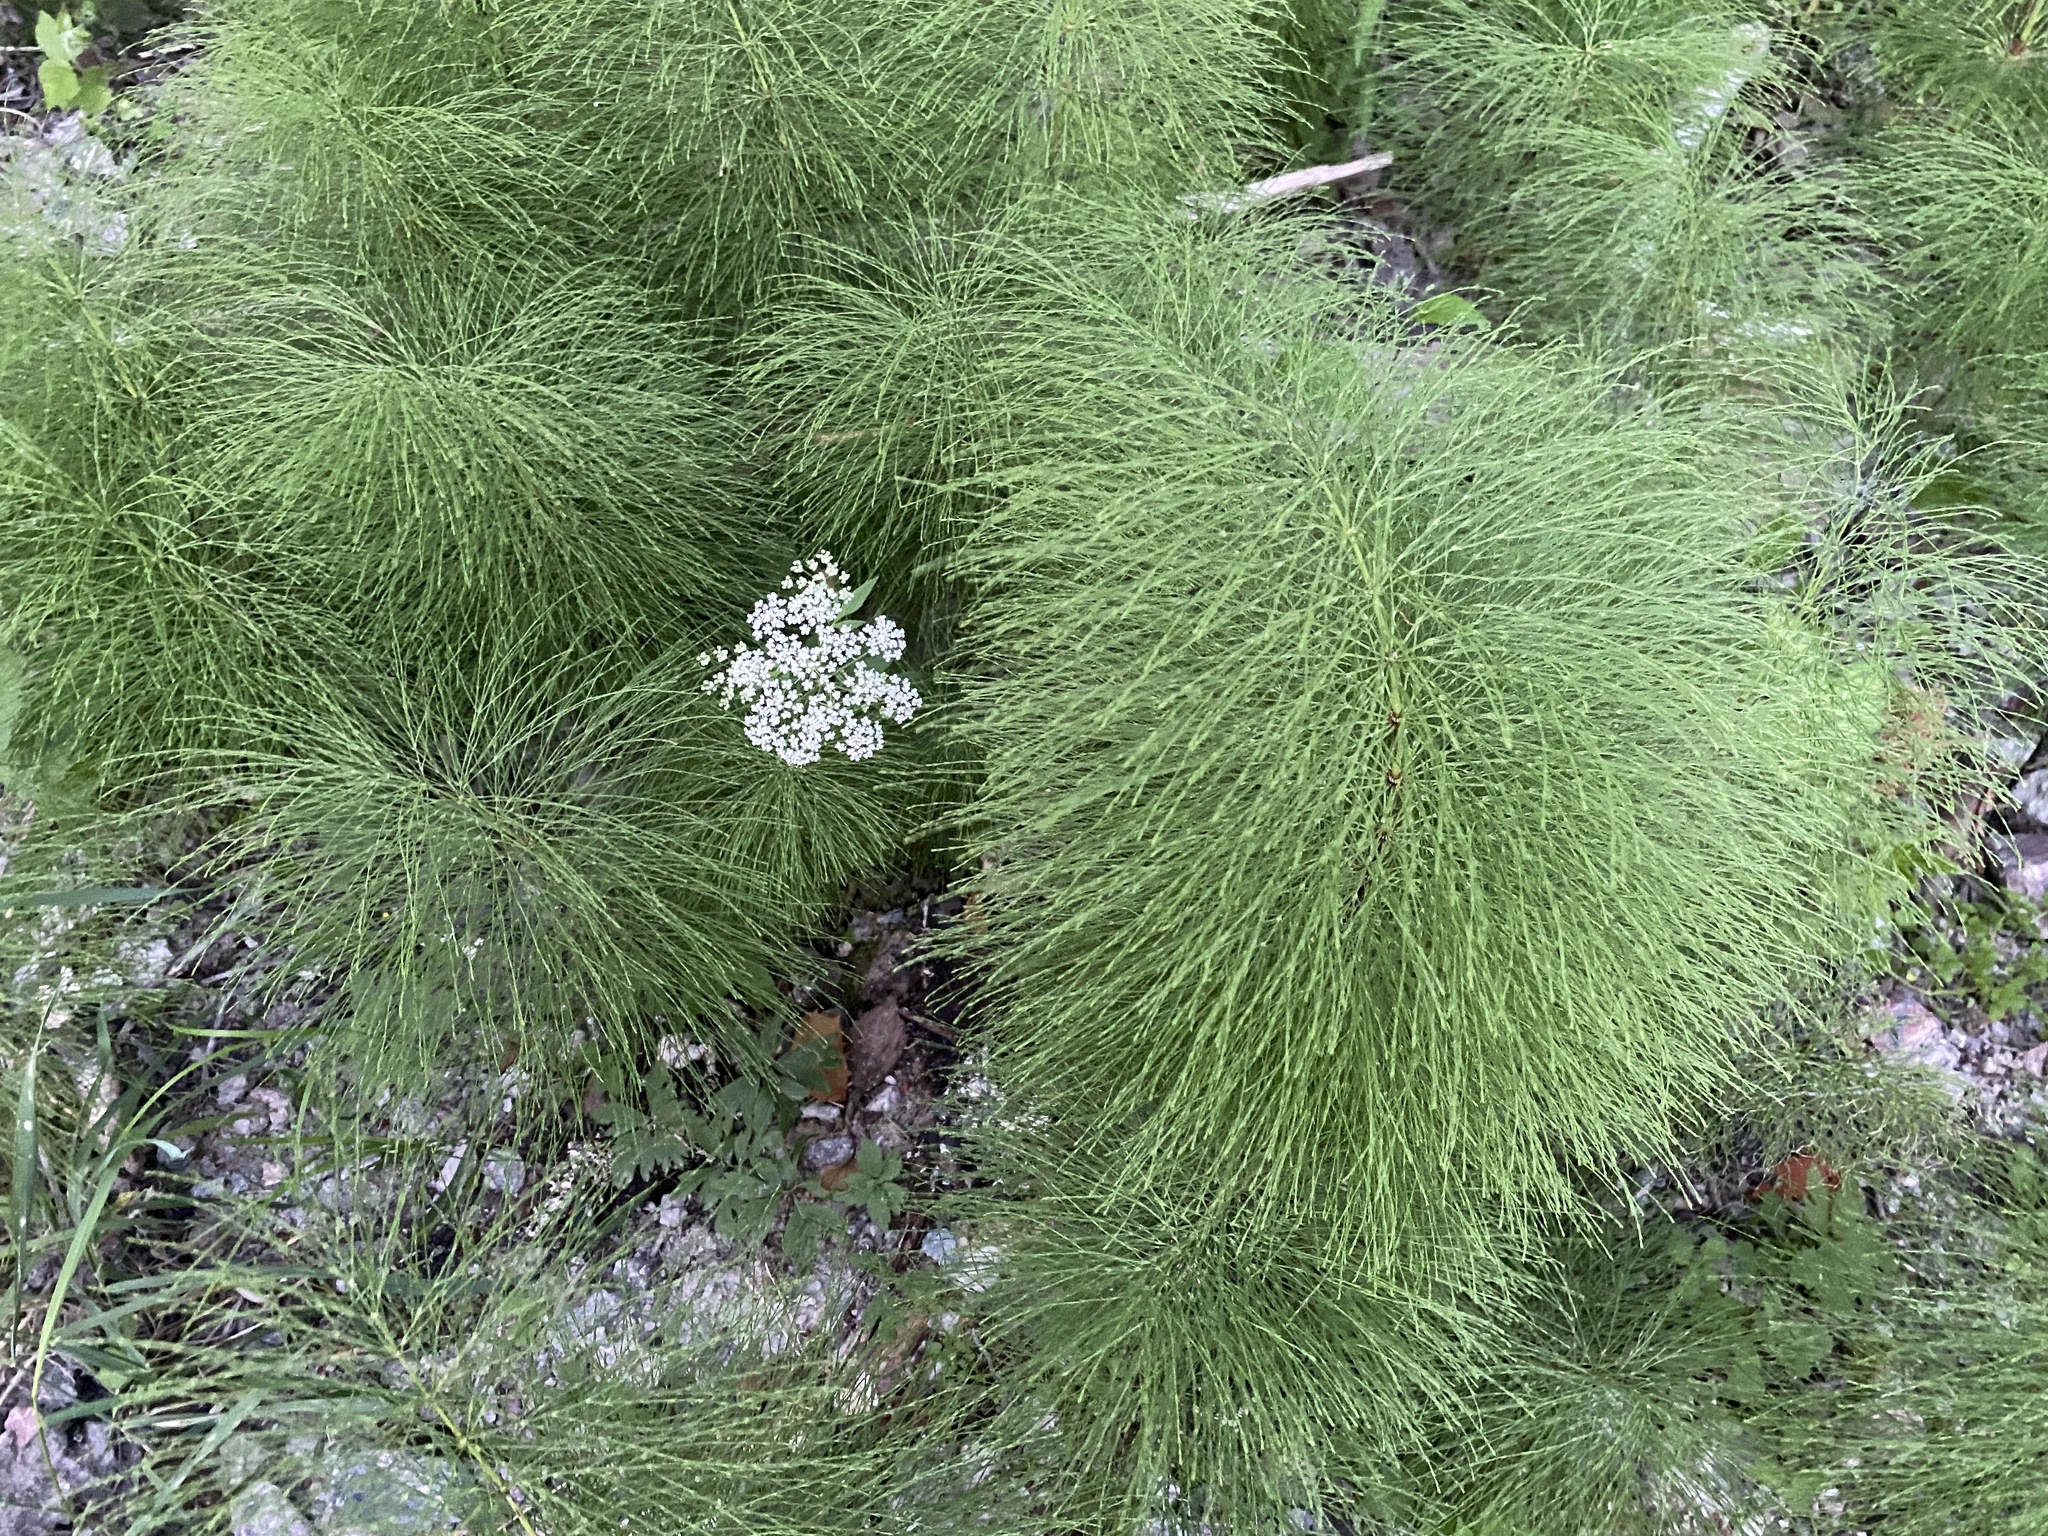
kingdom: Plantae
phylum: Tracheophyta
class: Polypodiopsida
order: Equisetales
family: Equisetaceae
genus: Equisetum
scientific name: Equisetum sylvaticum
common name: Wood horsetail
